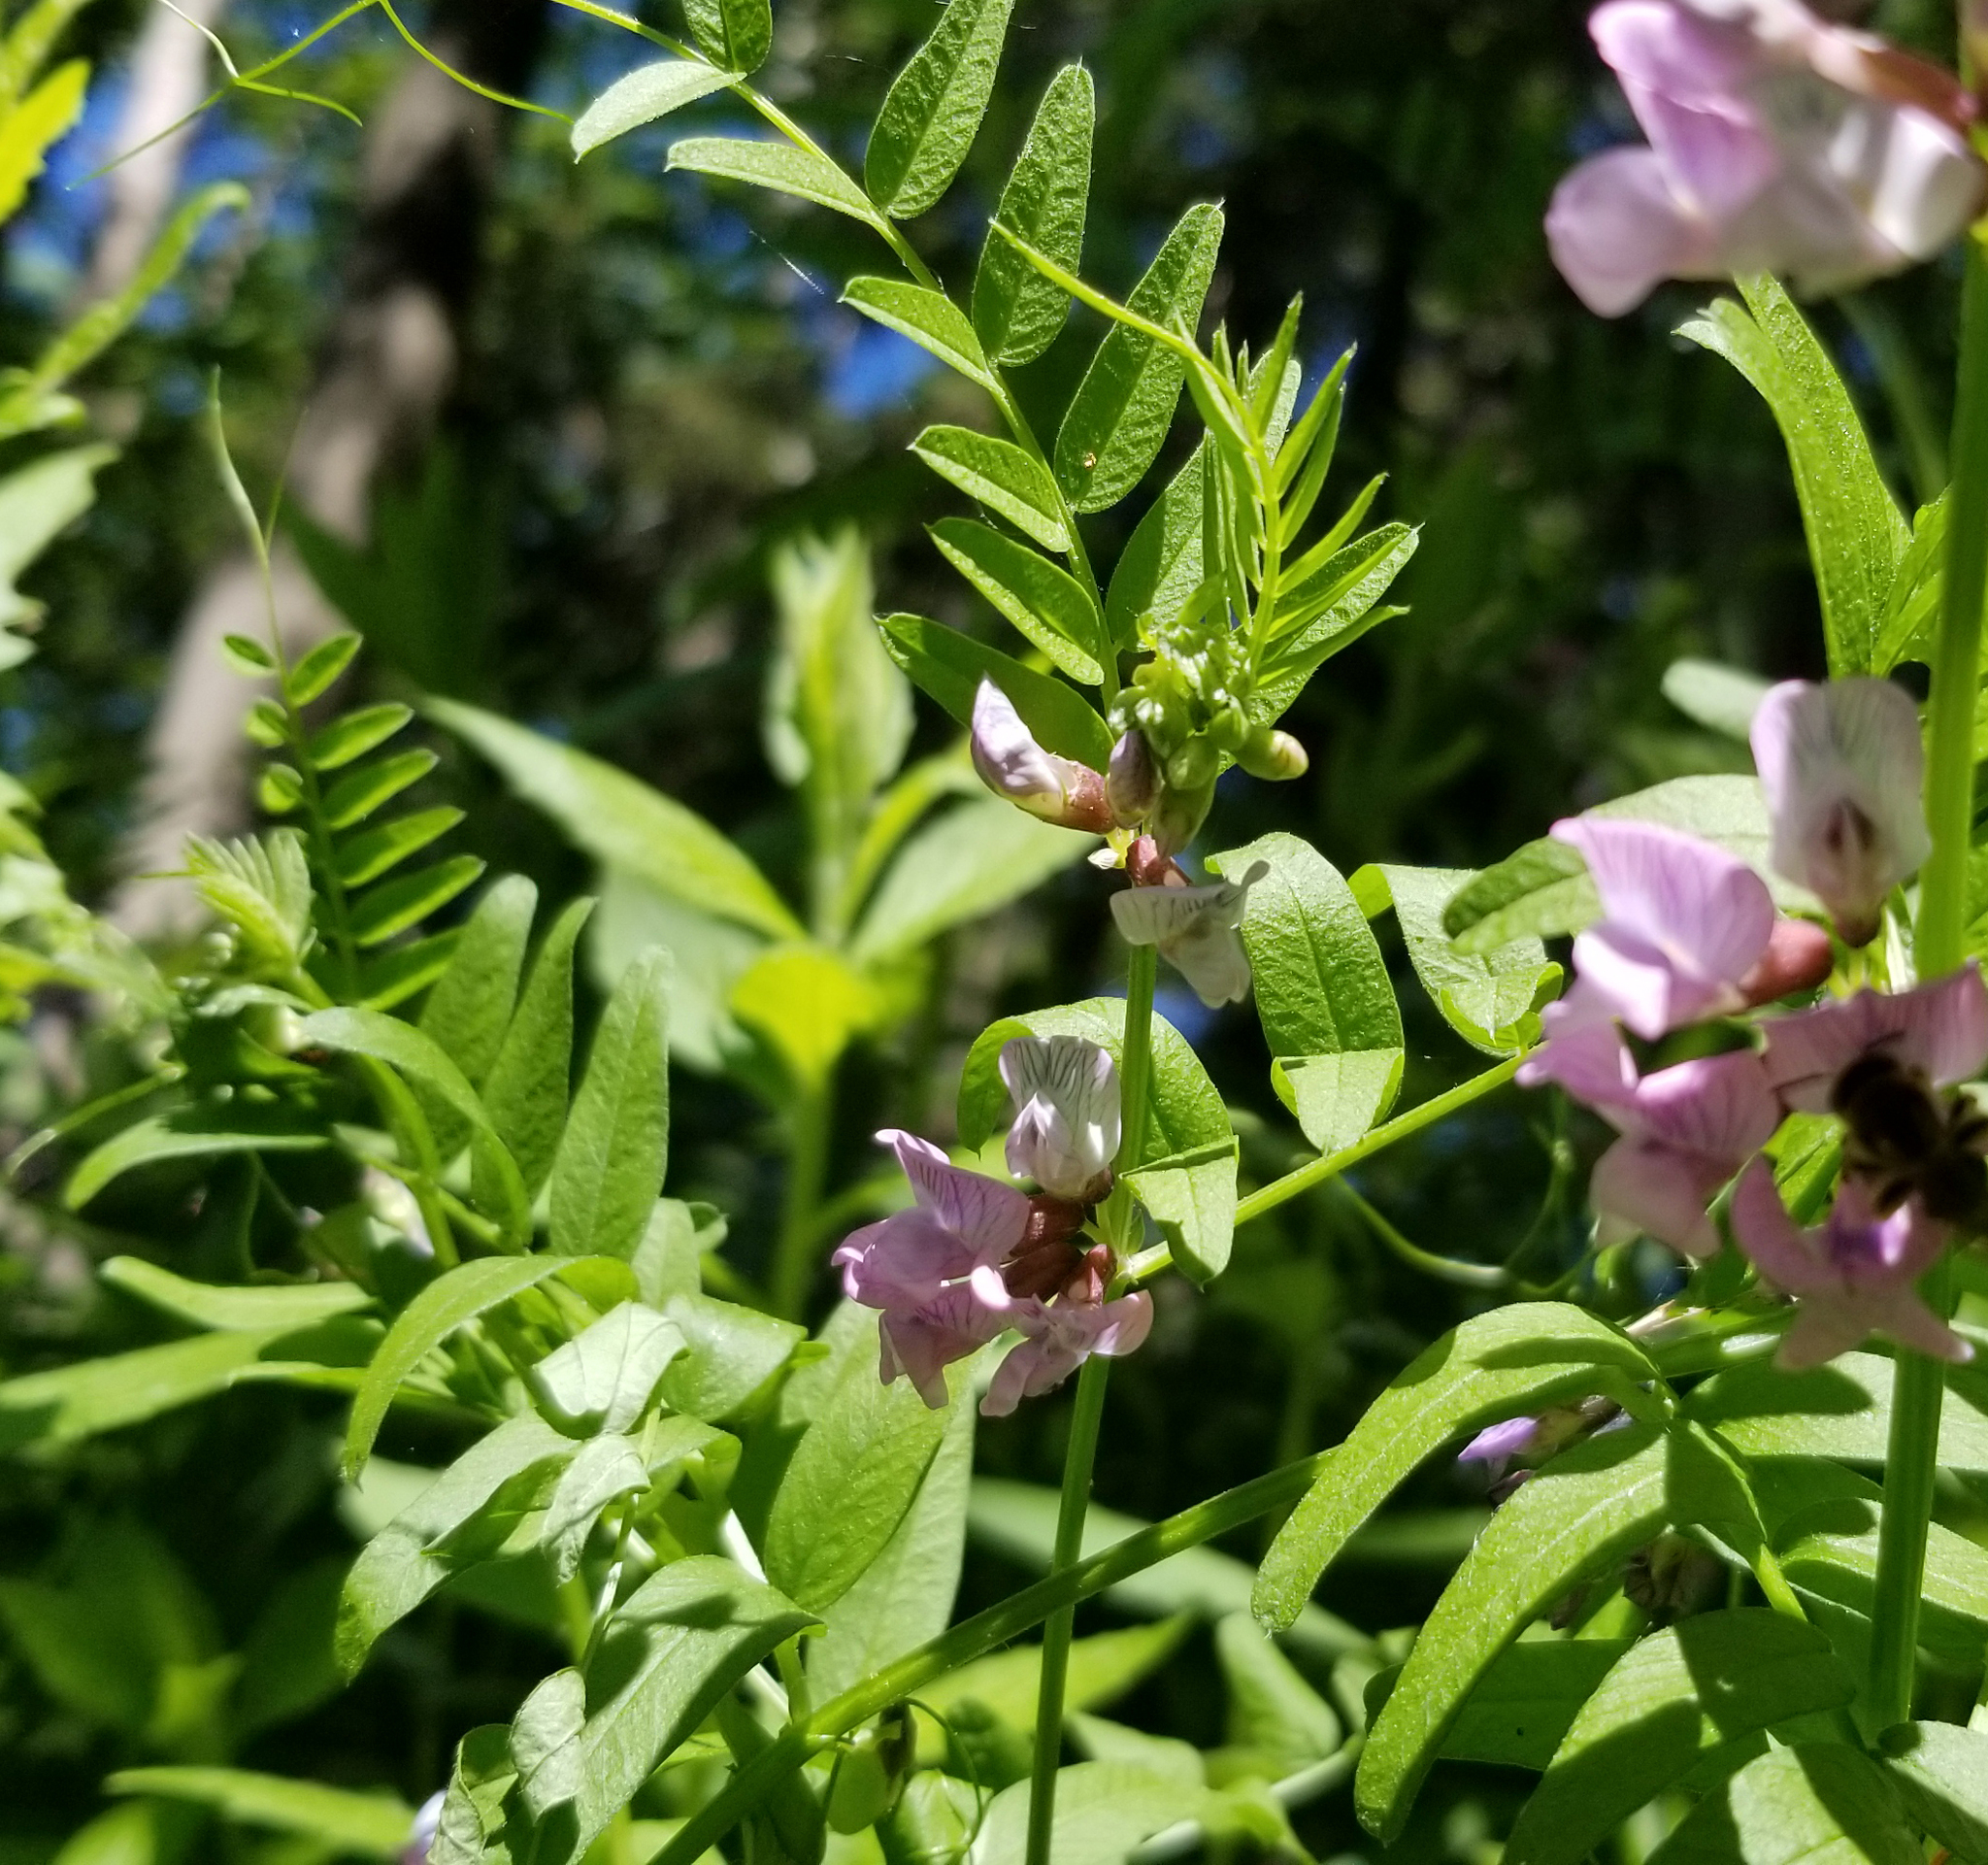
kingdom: Plantae
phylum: Tracheophyta
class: Magnoliopsida
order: Fabales
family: Fabaceae
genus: Vicia
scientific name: Vicia sepium
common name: Bush vetch
